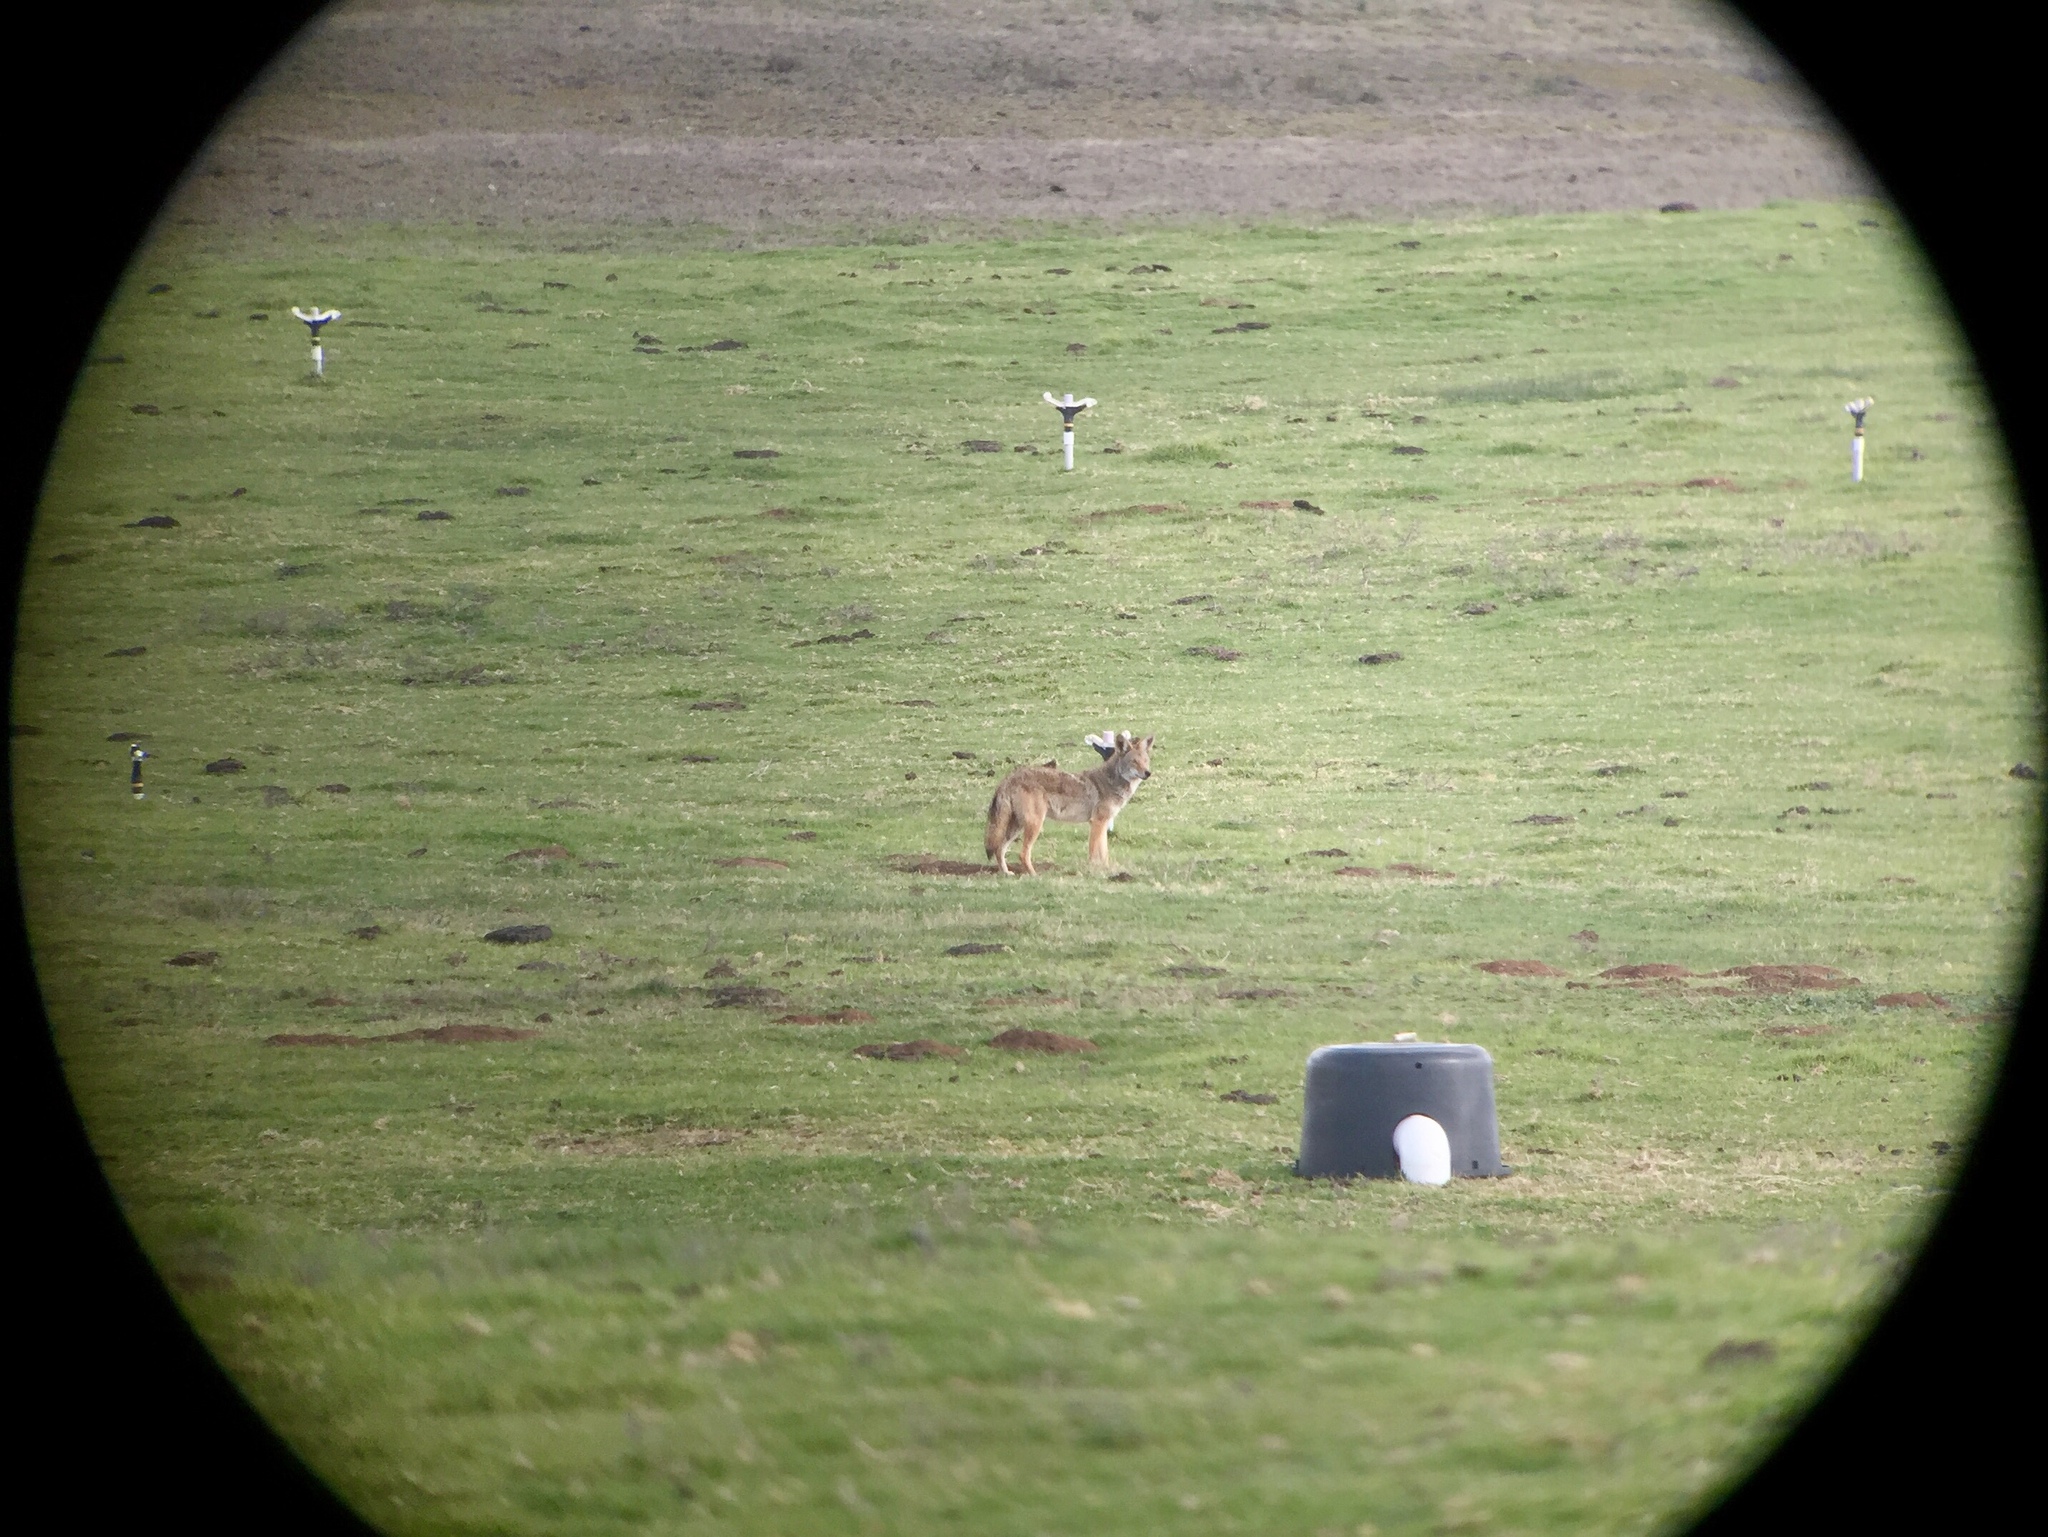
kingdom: Animalia
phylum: Chordata
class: Mammalia
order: Carnivora
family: Canidae
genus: Canis
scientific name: Canis latrans
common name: Coyote
